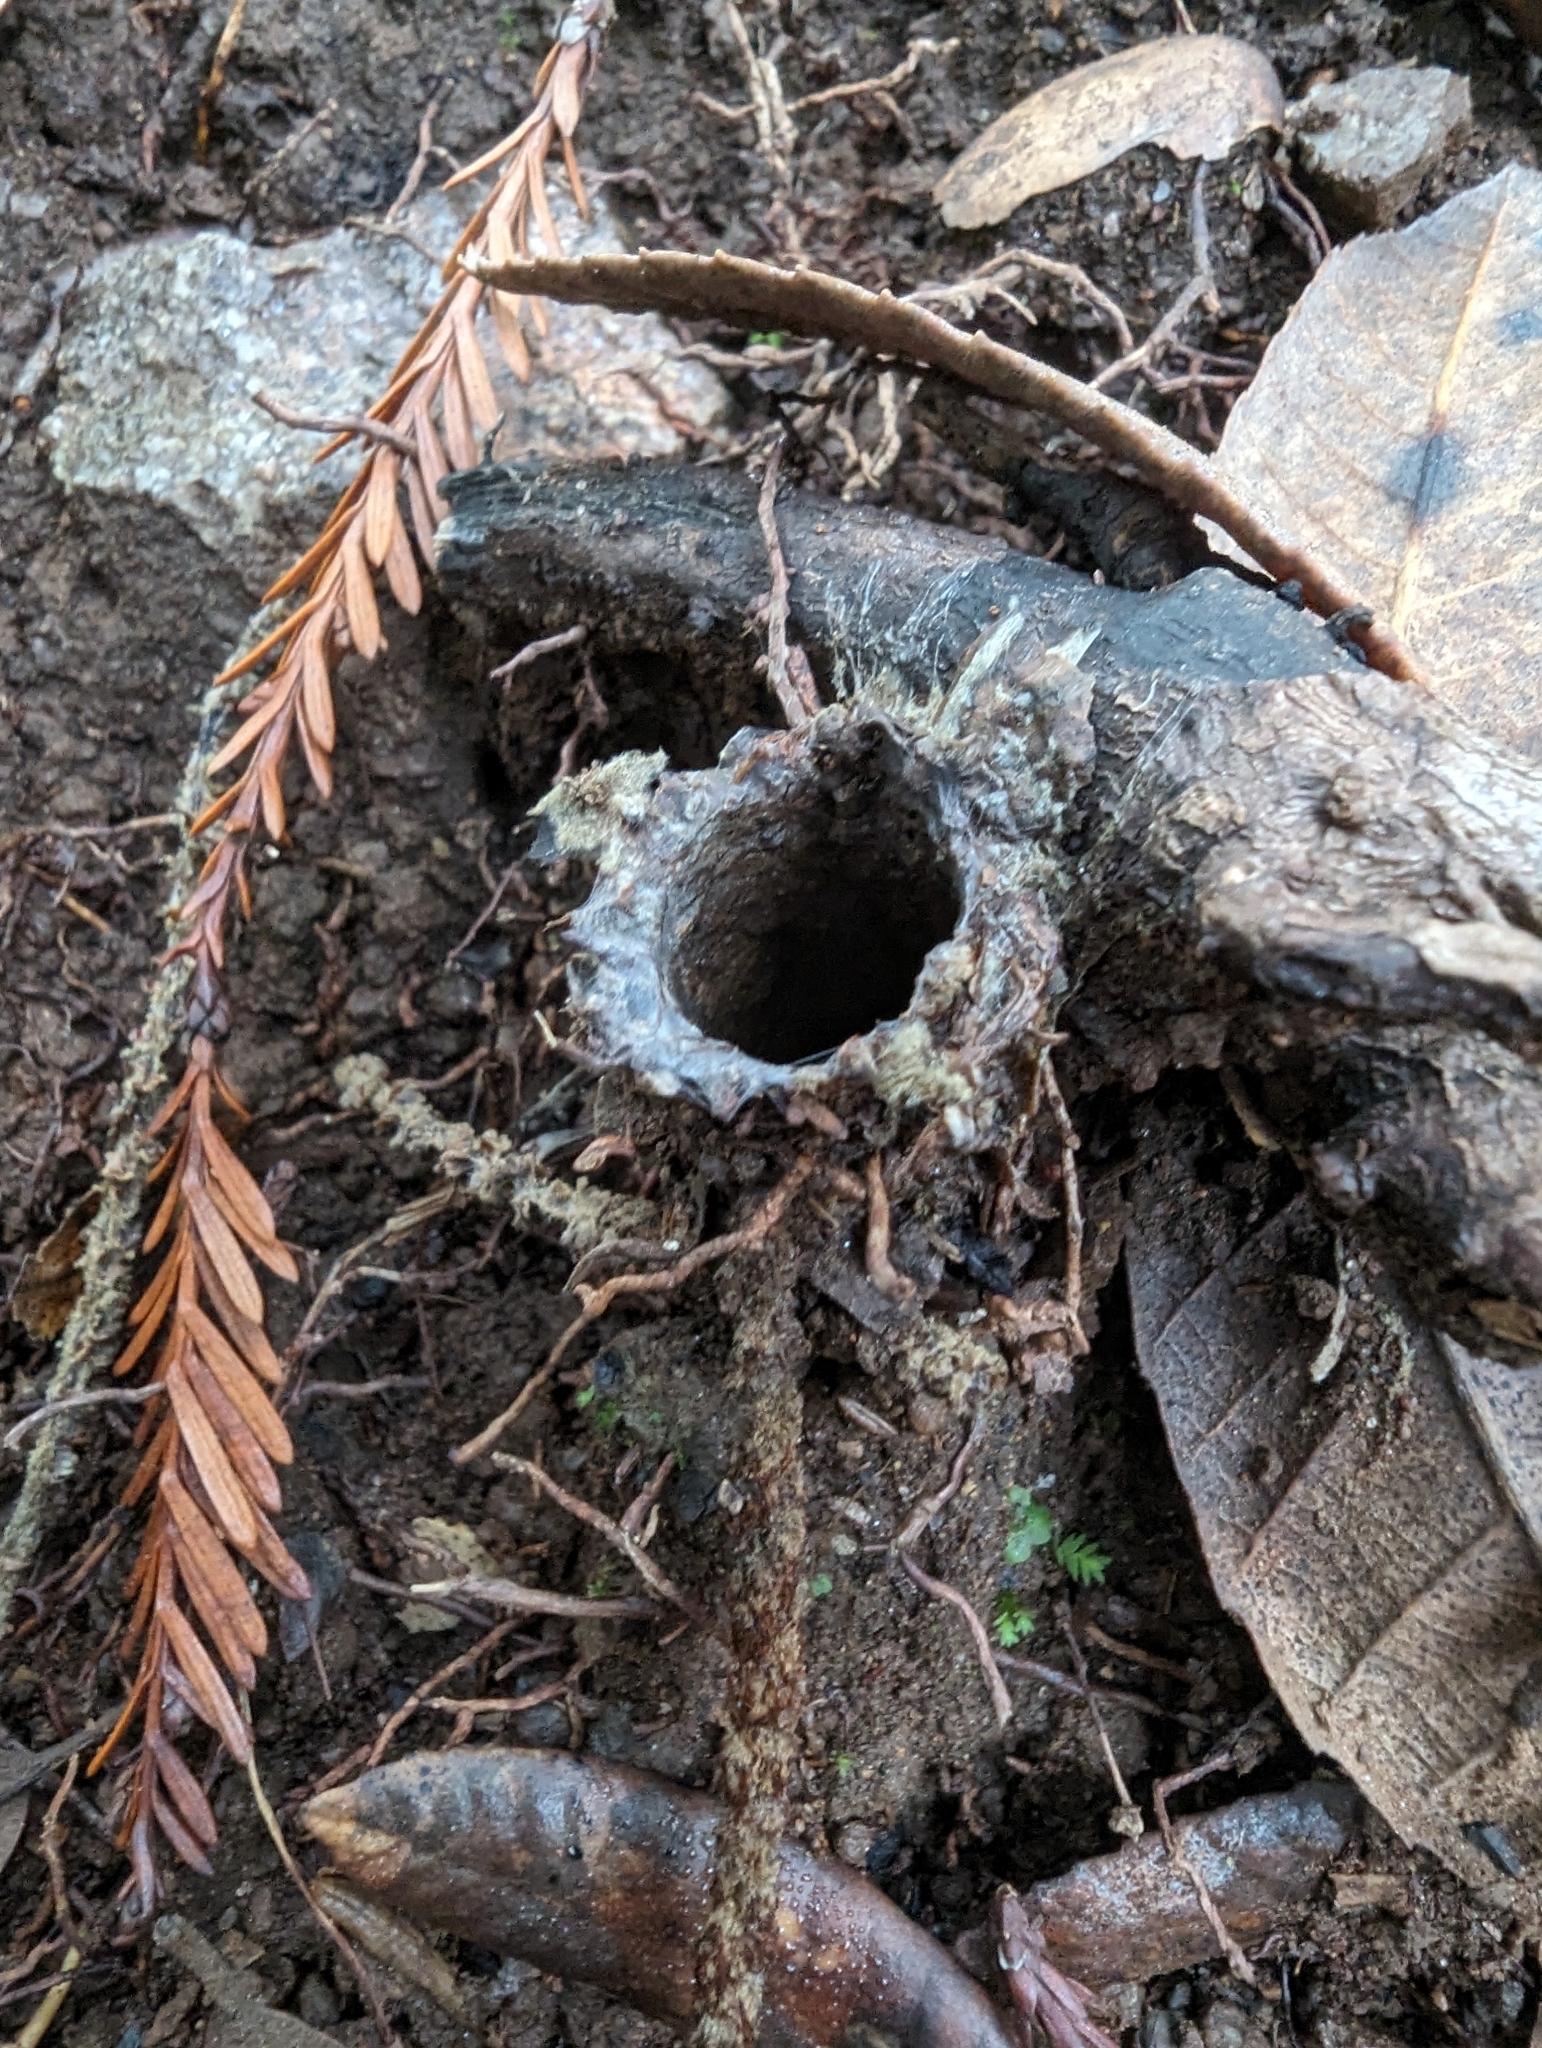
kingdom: Animalia
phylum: Arthropoda
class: Arachnida
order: Araneae
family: Antrodiaetidae
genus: Atypoides
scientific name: Atypoides riversi
